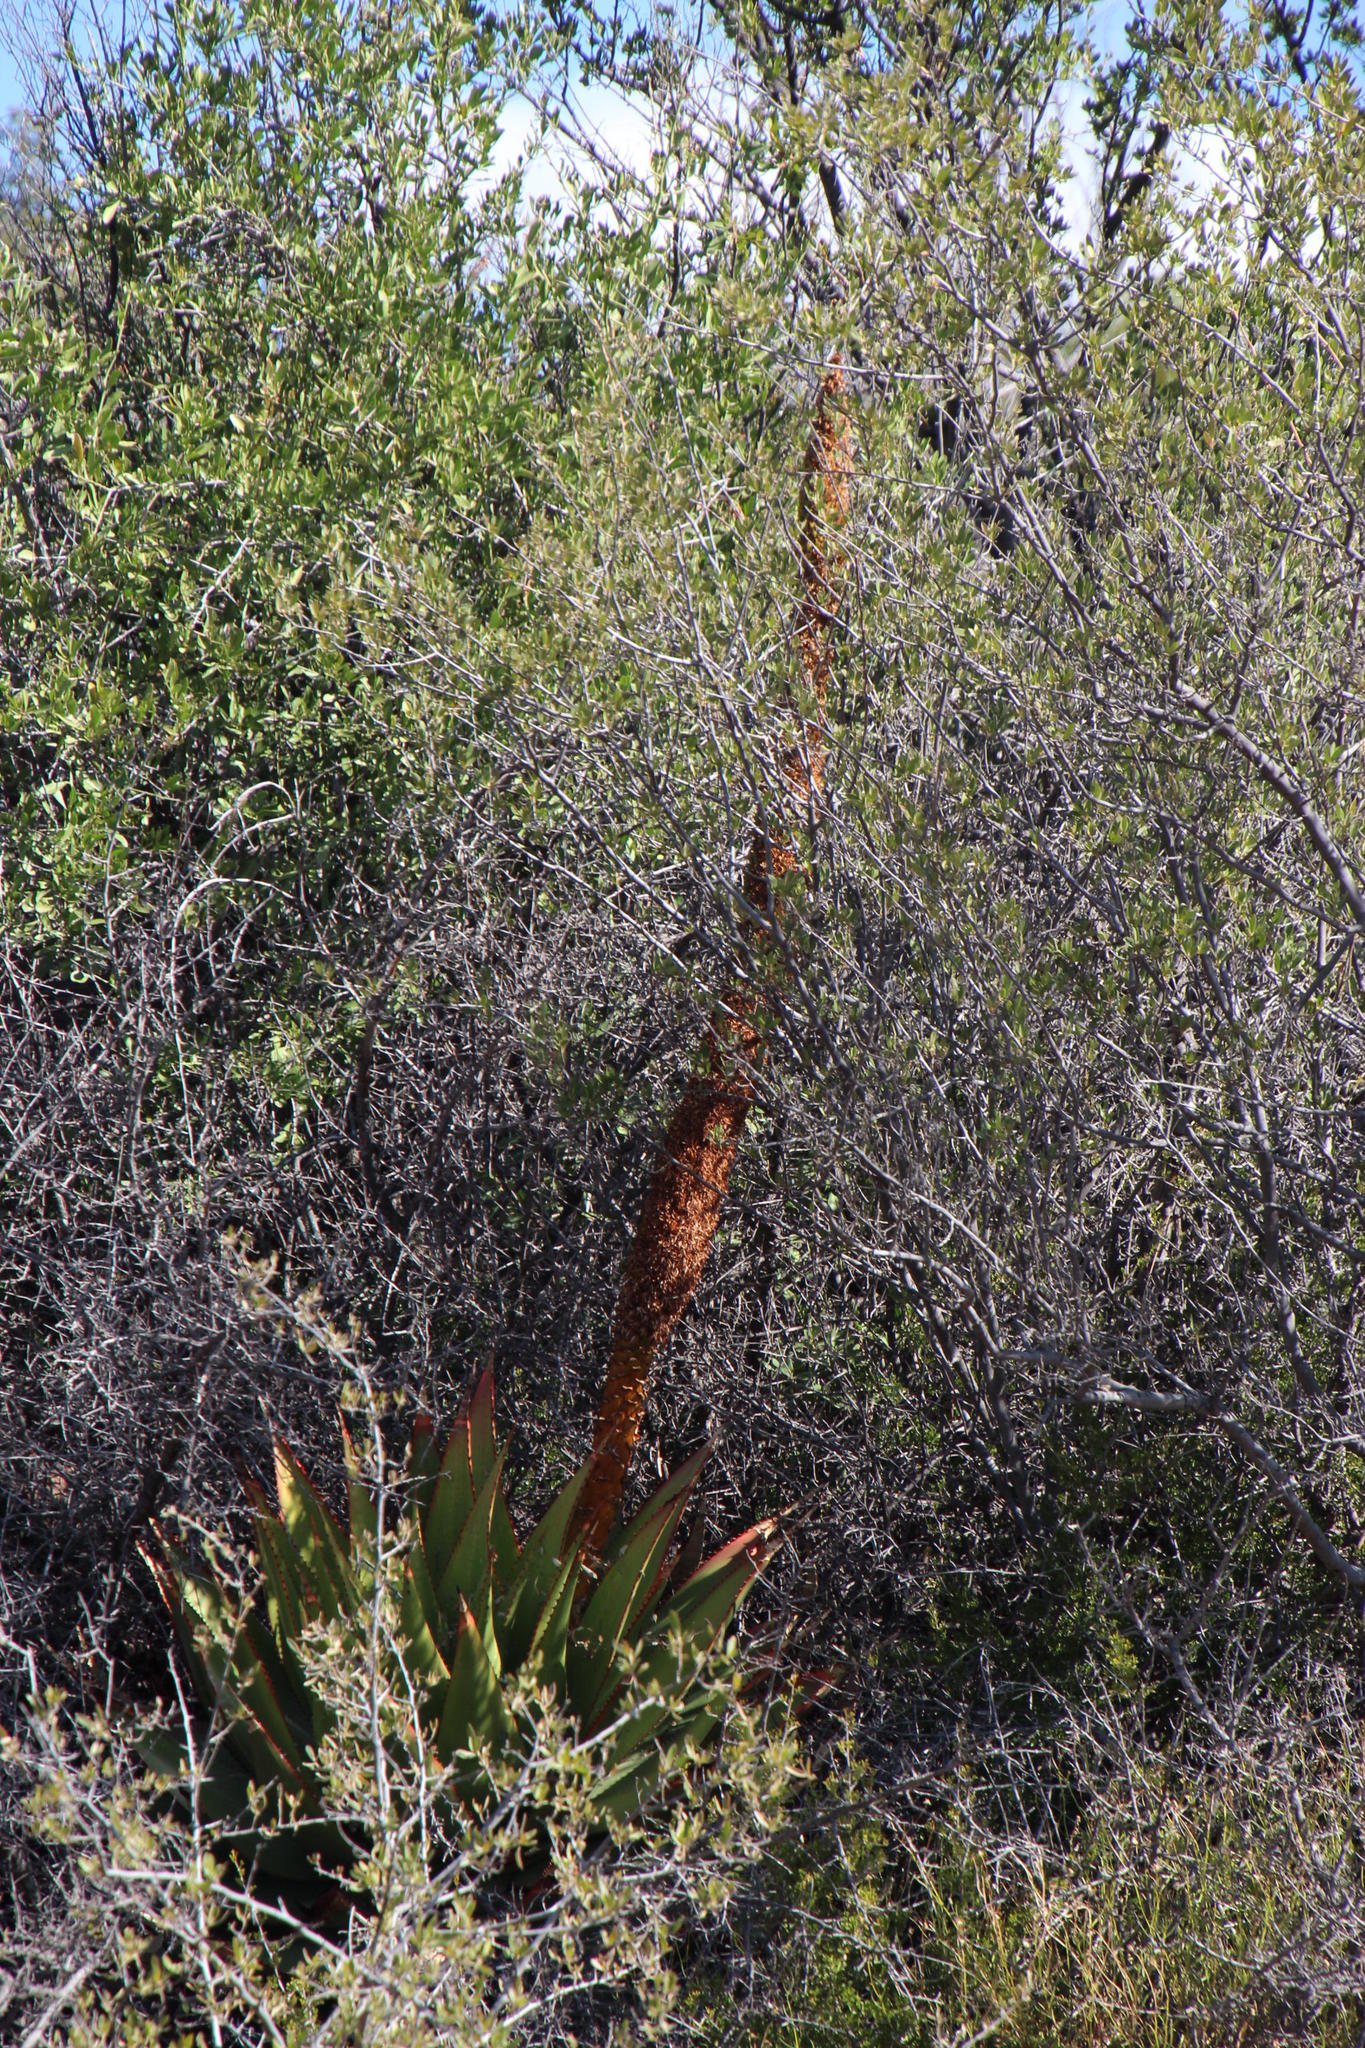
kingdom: Plantae
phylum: Tracheophyta
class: Liliopsida
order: Asparagales
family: Asphodelaceae
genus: Aloe
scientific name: Aloe broomii
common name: Berg alwyn
